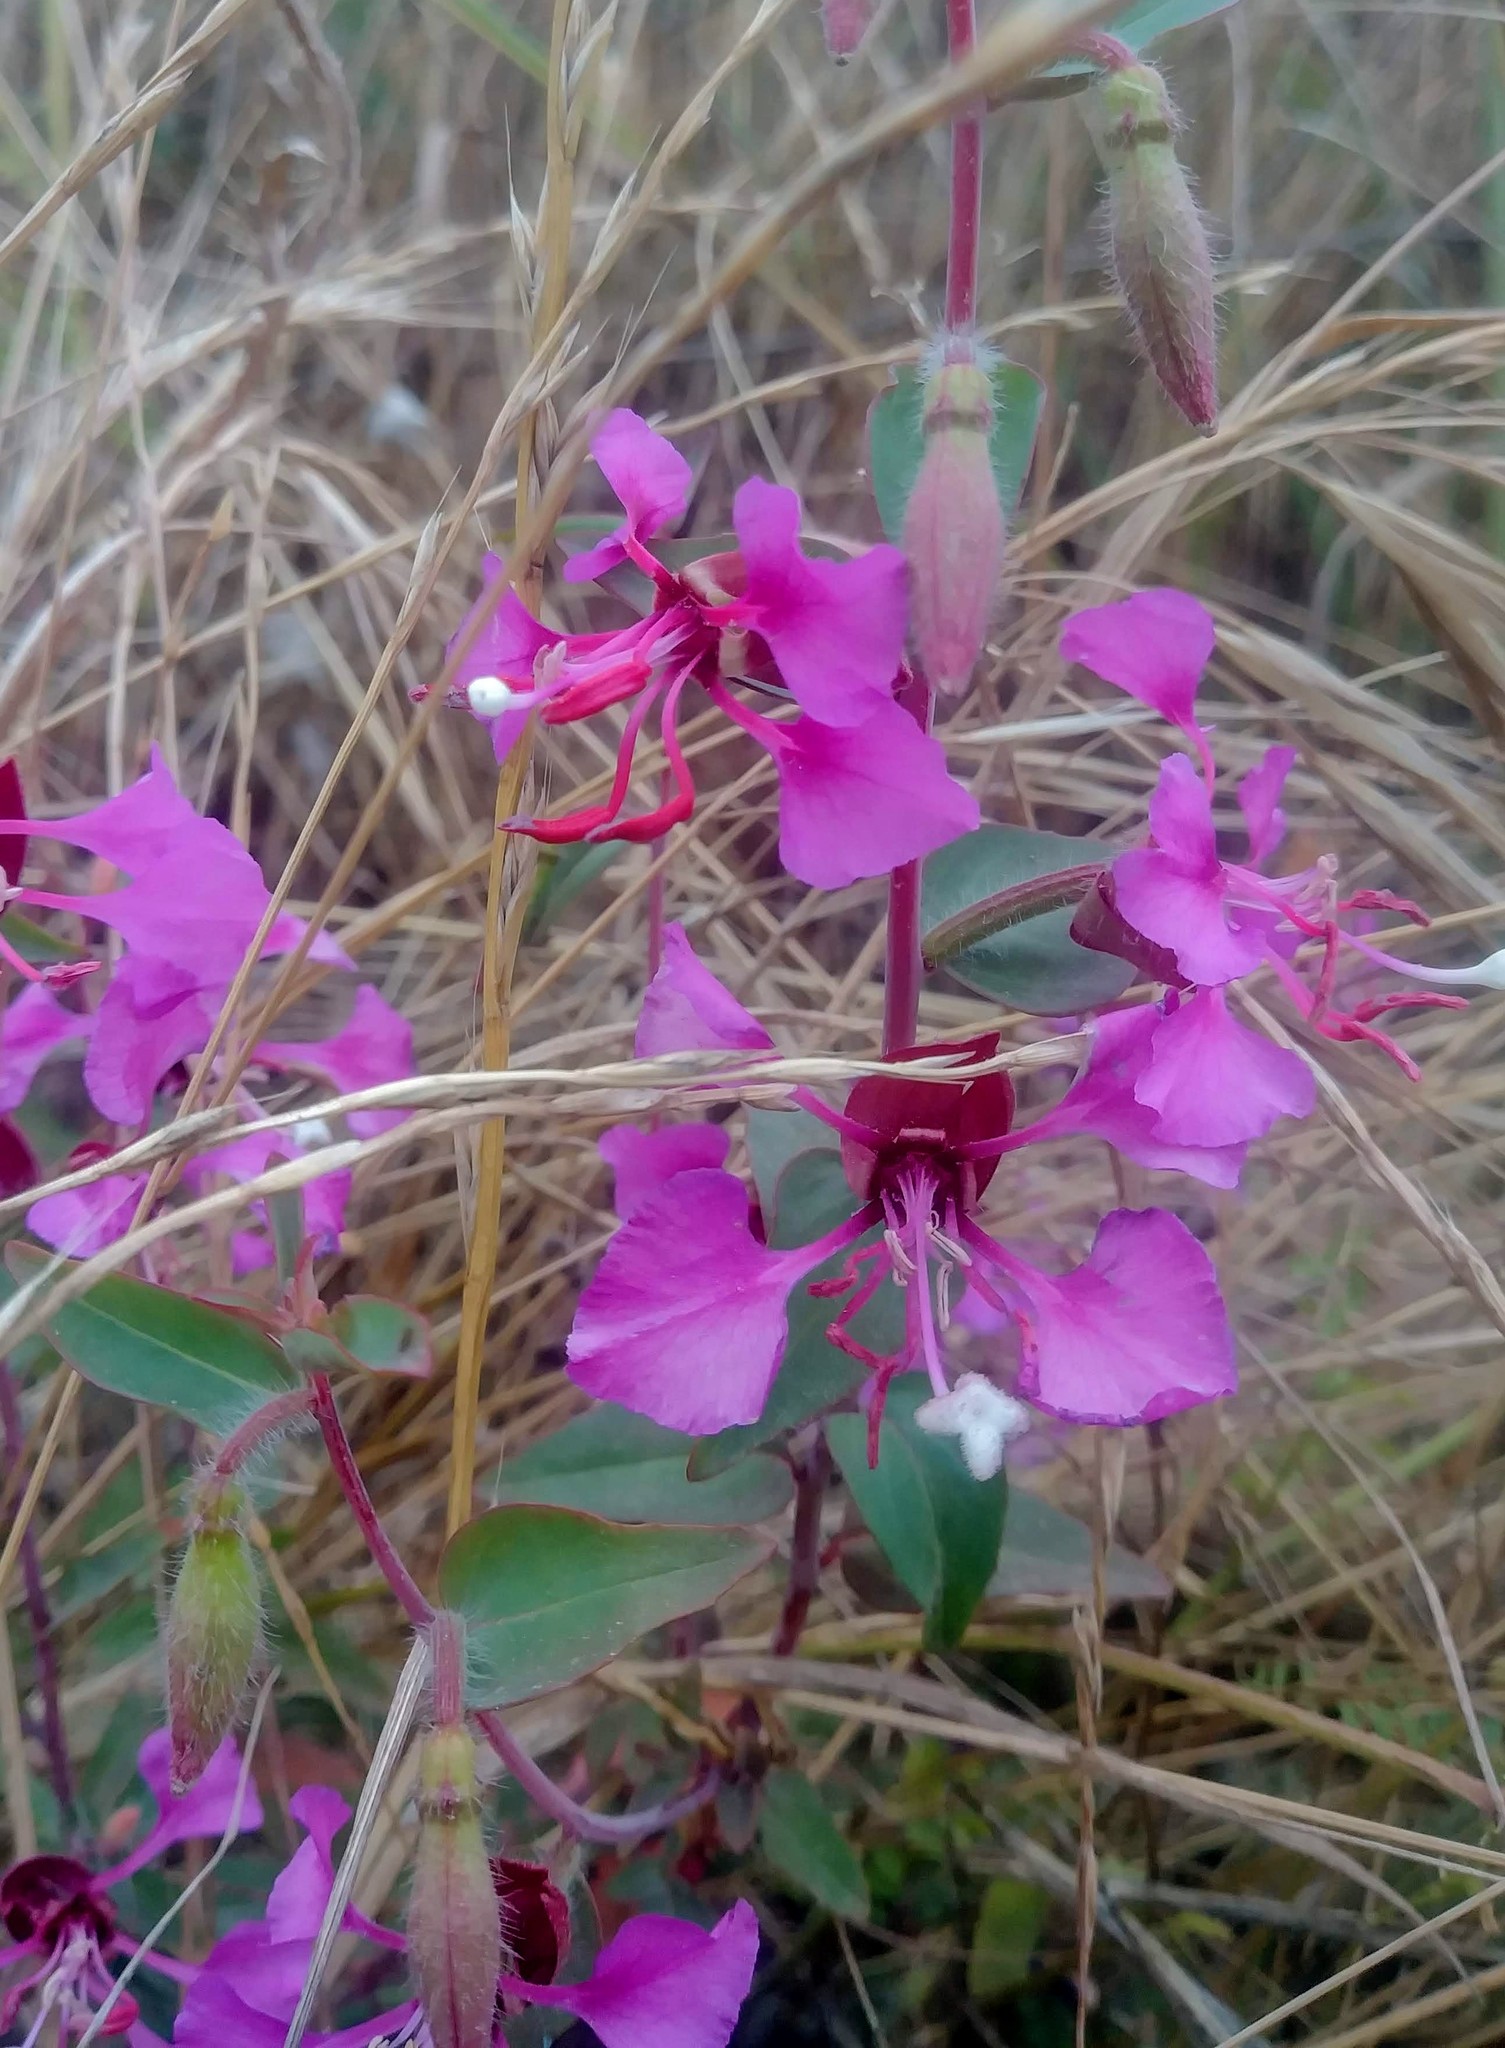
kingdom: Plantae
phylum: Tracheophyta
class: Magnoliopsida
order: Myrtales
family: Onagraceae
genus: Clarkia
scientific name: Clarkia unguiculata
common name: Clarkia
